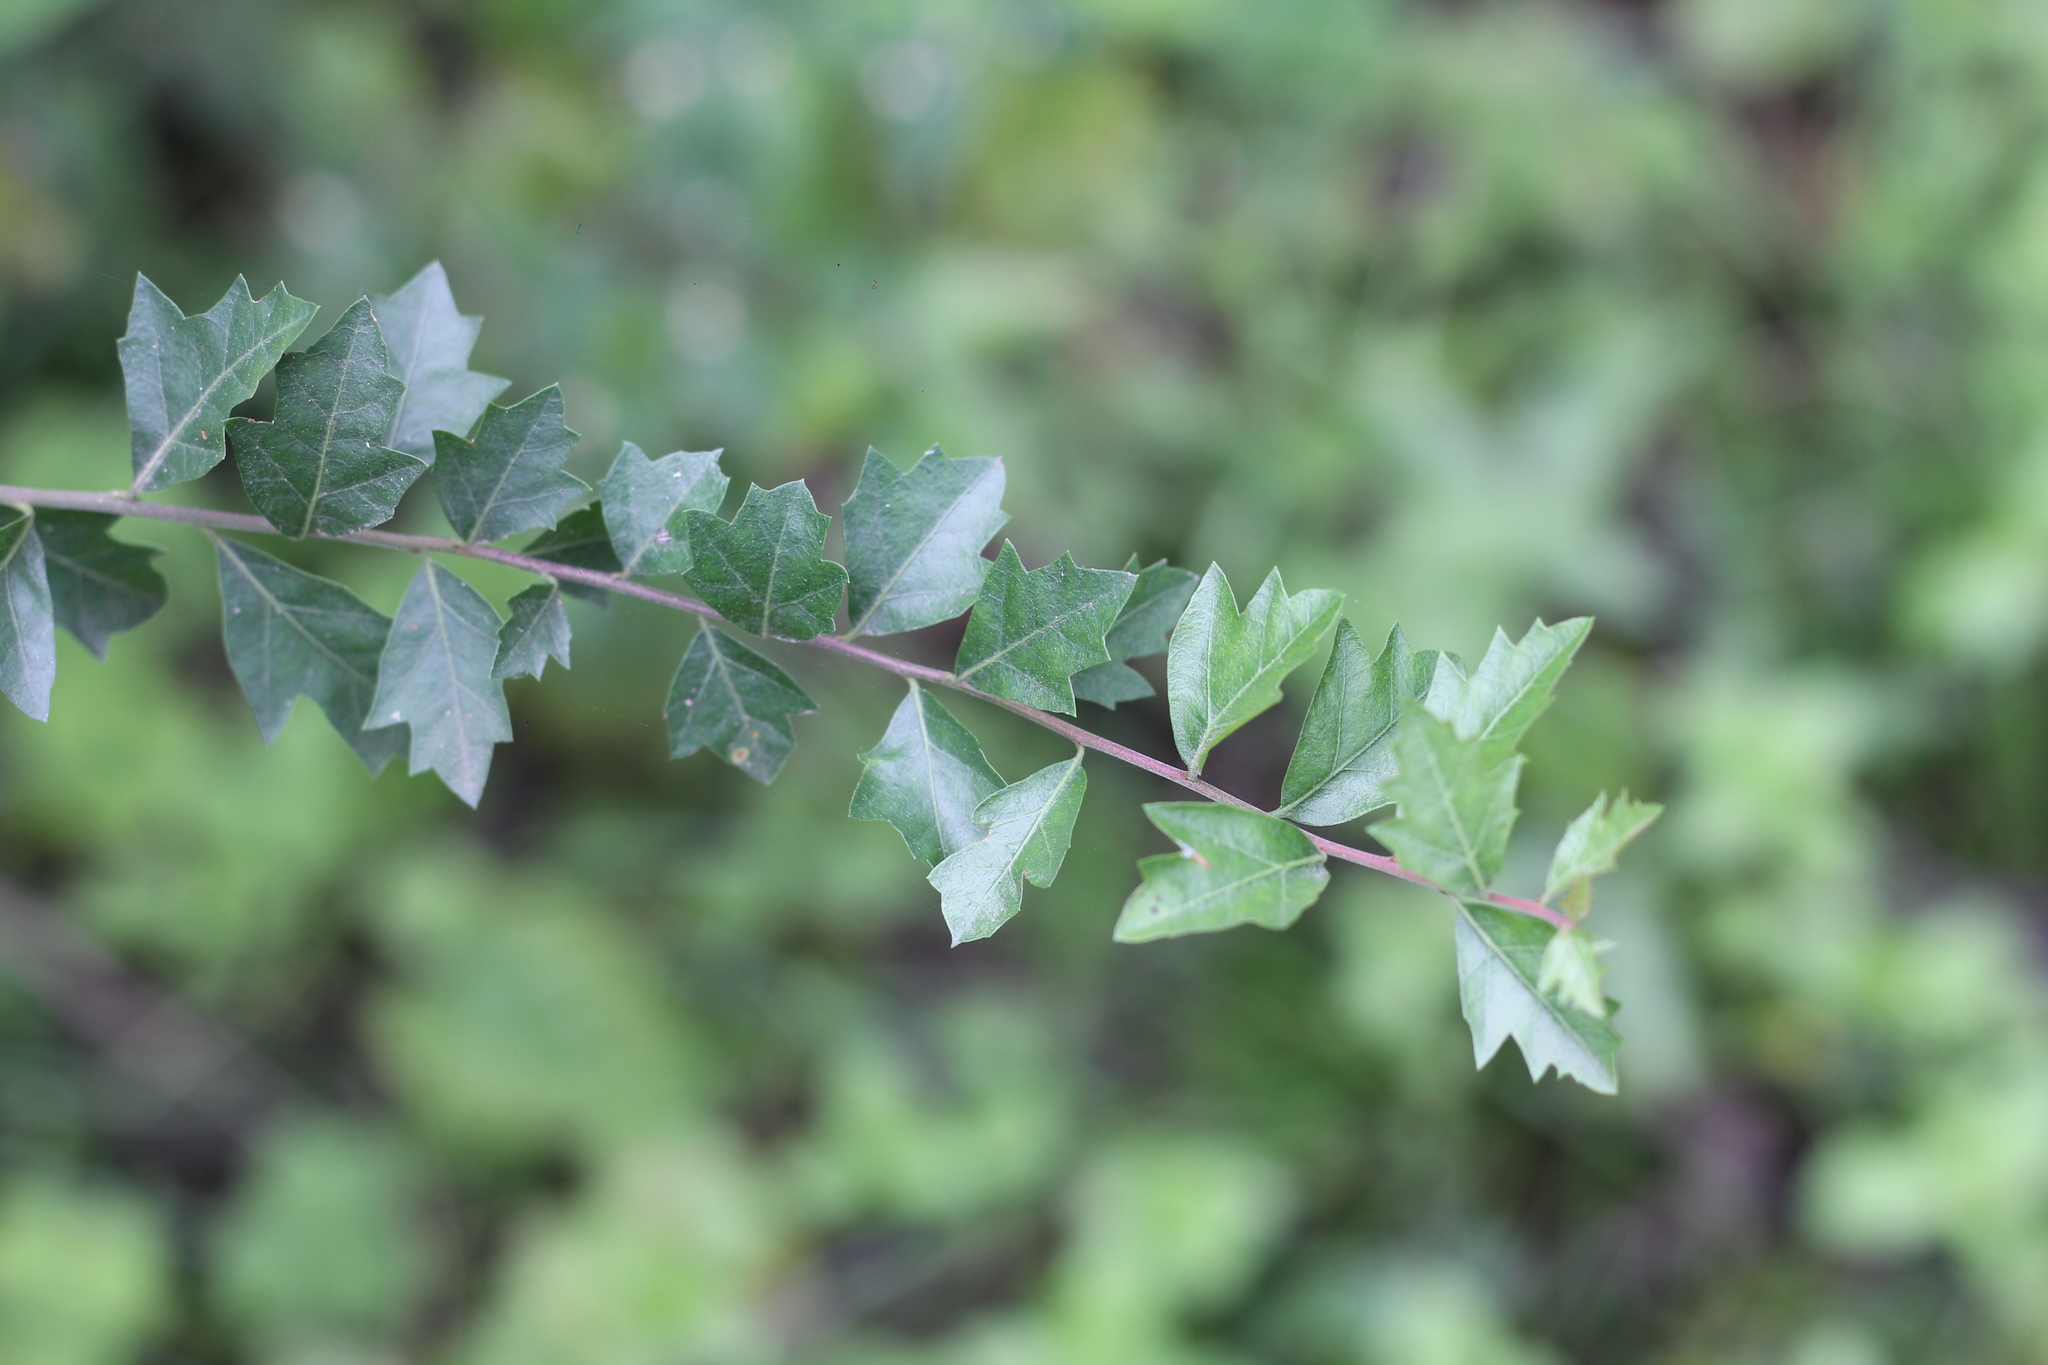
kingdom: Plantae
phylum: Tracheophyta
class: Magnoliopsida
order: Sapindales
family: Anacardiaceae
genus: Schinus
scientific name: Schinus fasciculata
